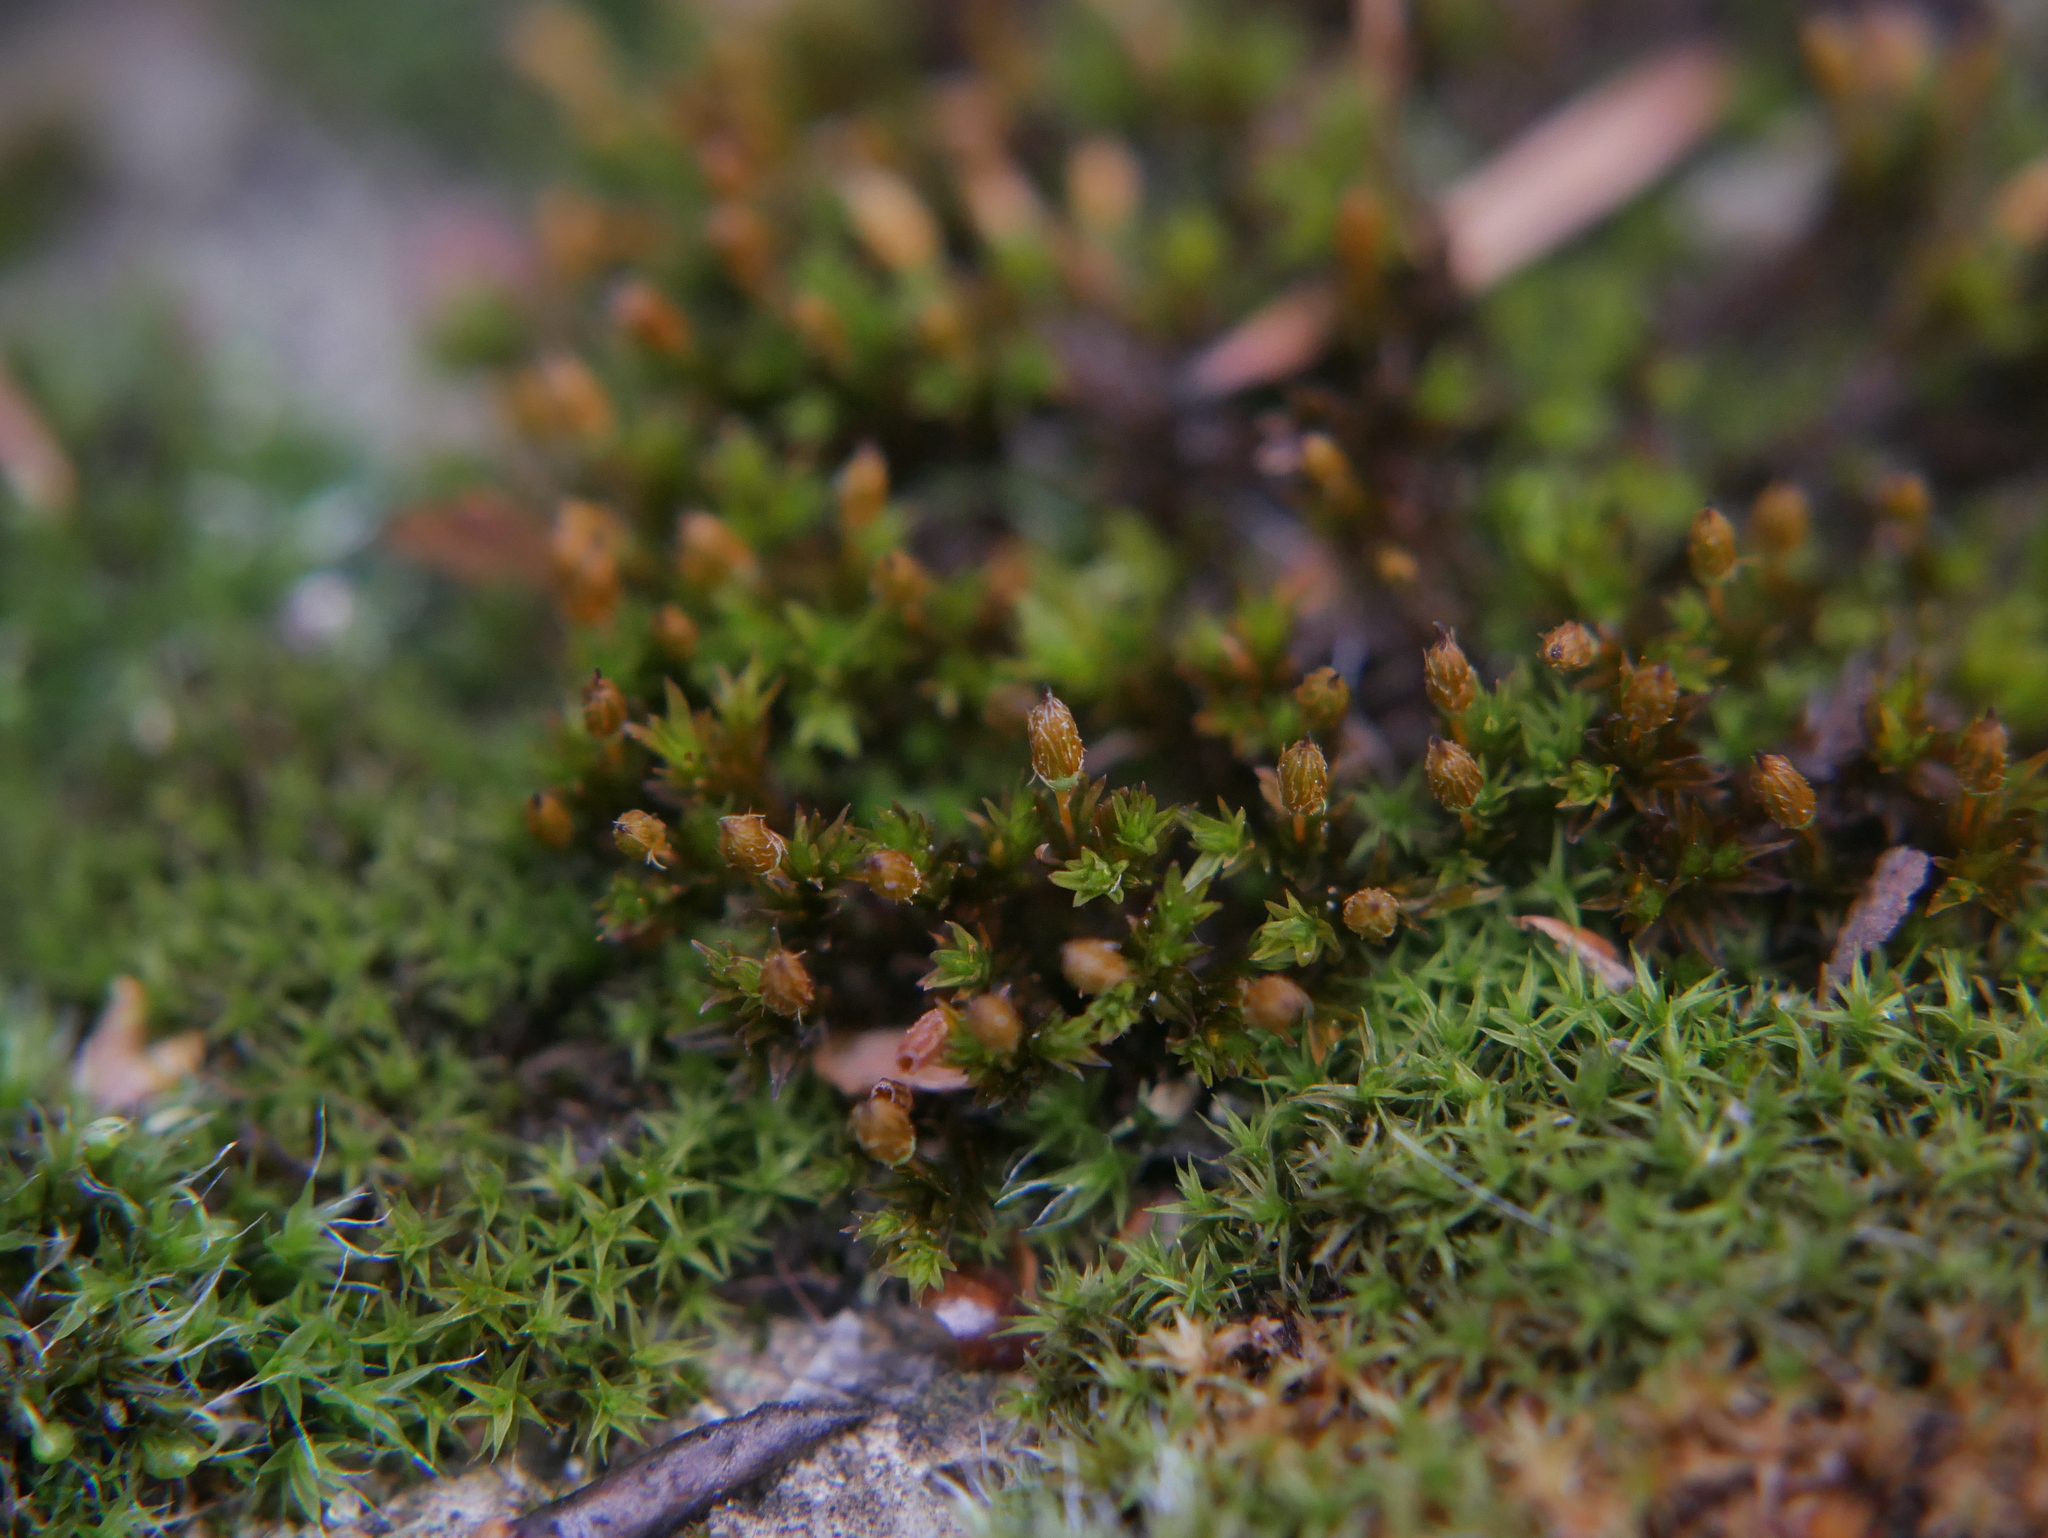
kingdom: Plantae
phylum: Bryophyta
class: Bryopsida
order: Orthotrichales
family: Orthotrichaceae
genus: Orthotrichum
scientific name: Orthotrichum anomalum
